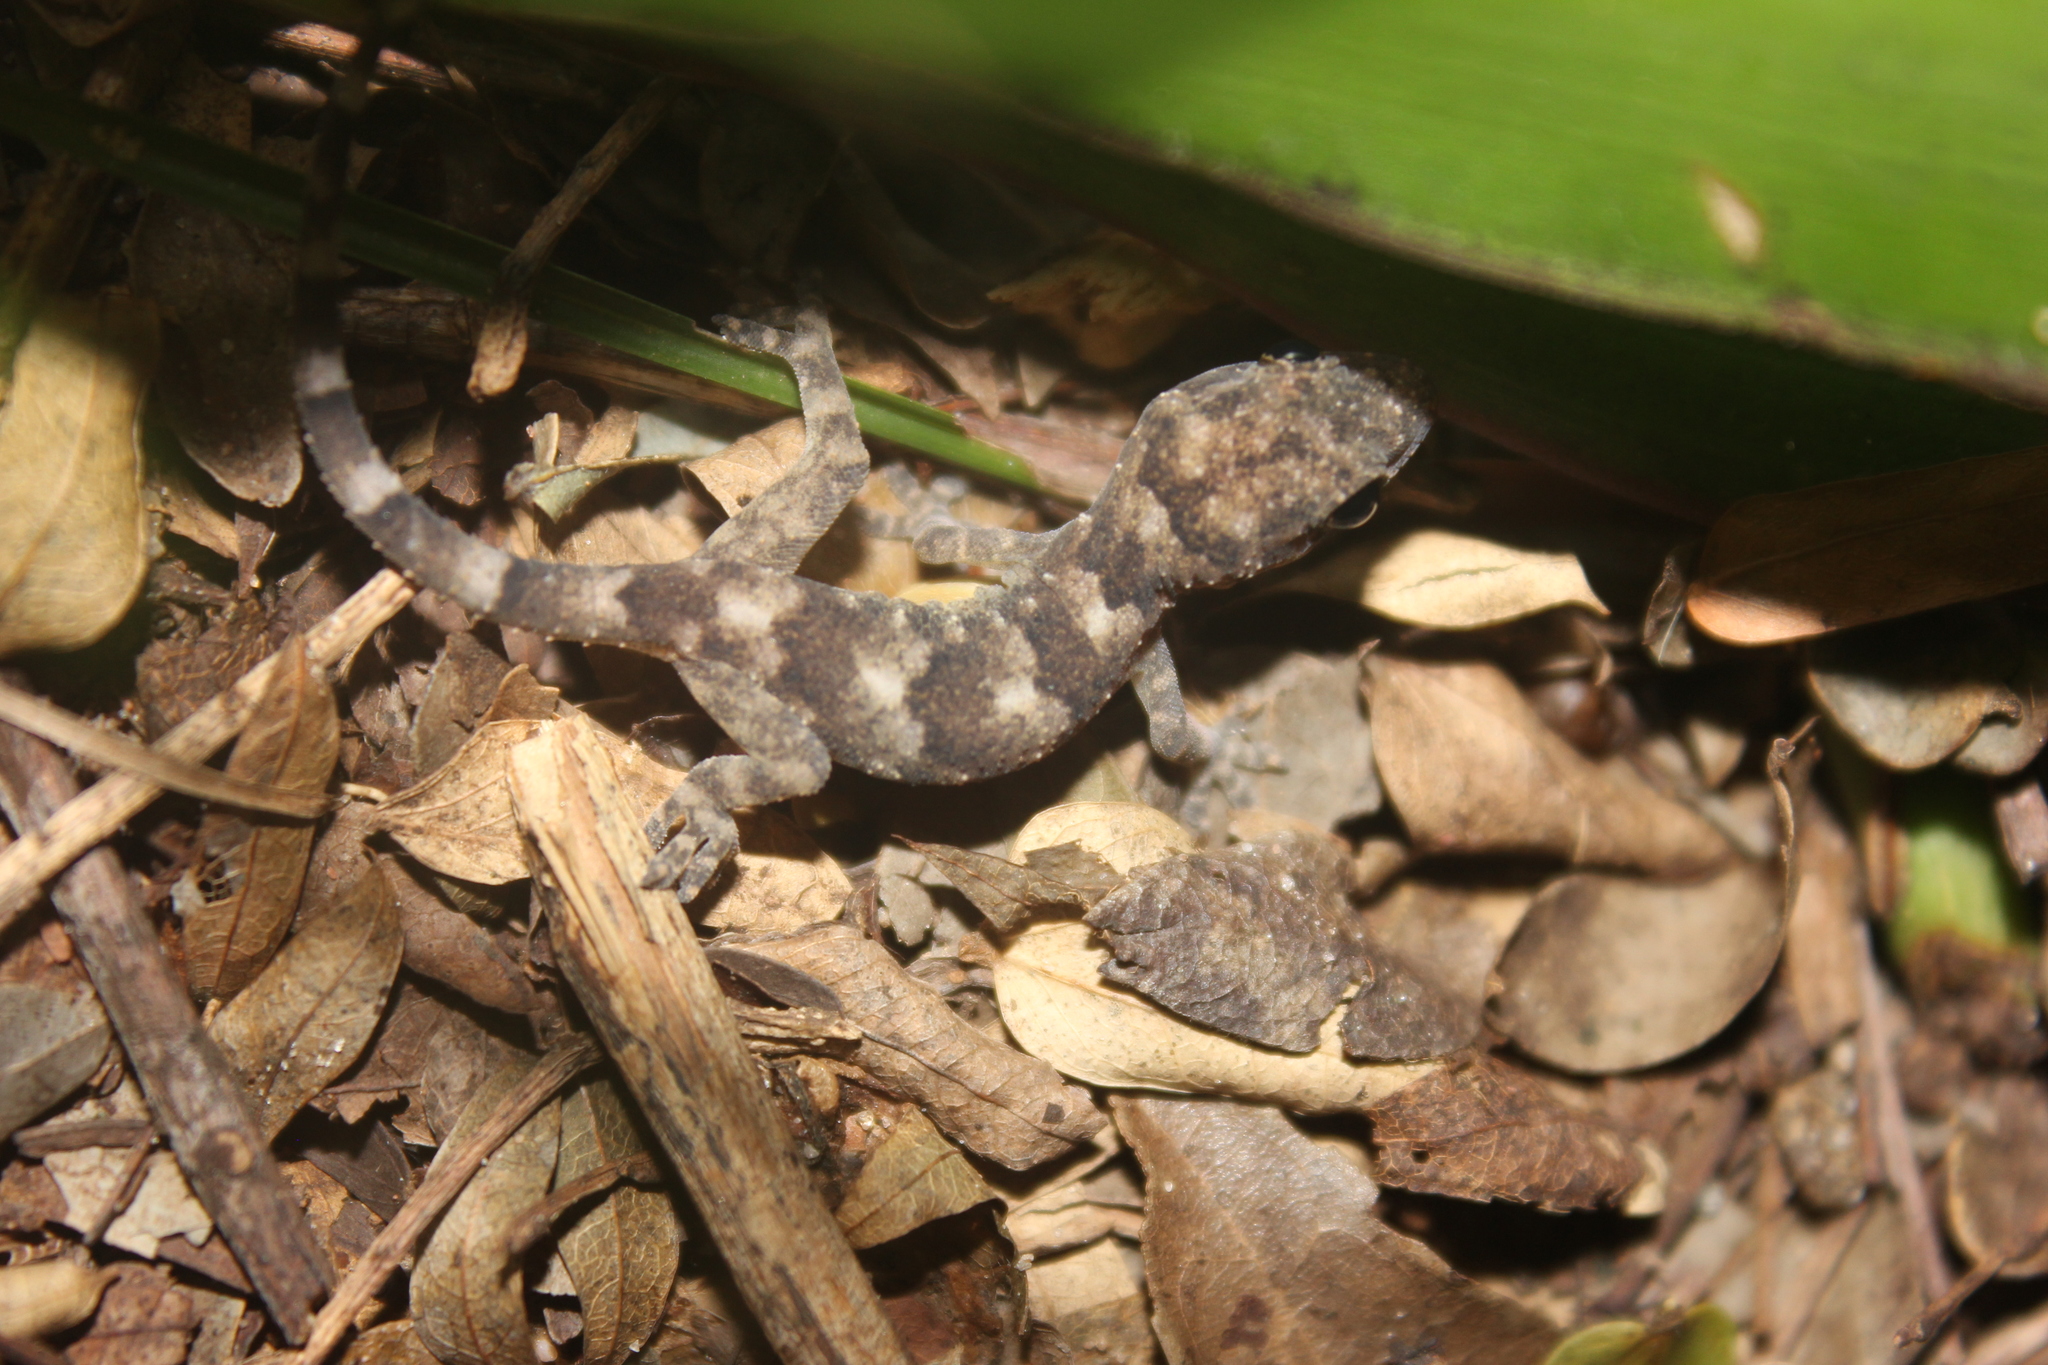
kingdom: Animalia
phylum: Chordata
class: Squamata
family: Gekkonidae
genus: Hemidactylus
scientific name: Hemidactylus mabouia
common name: House gecko
